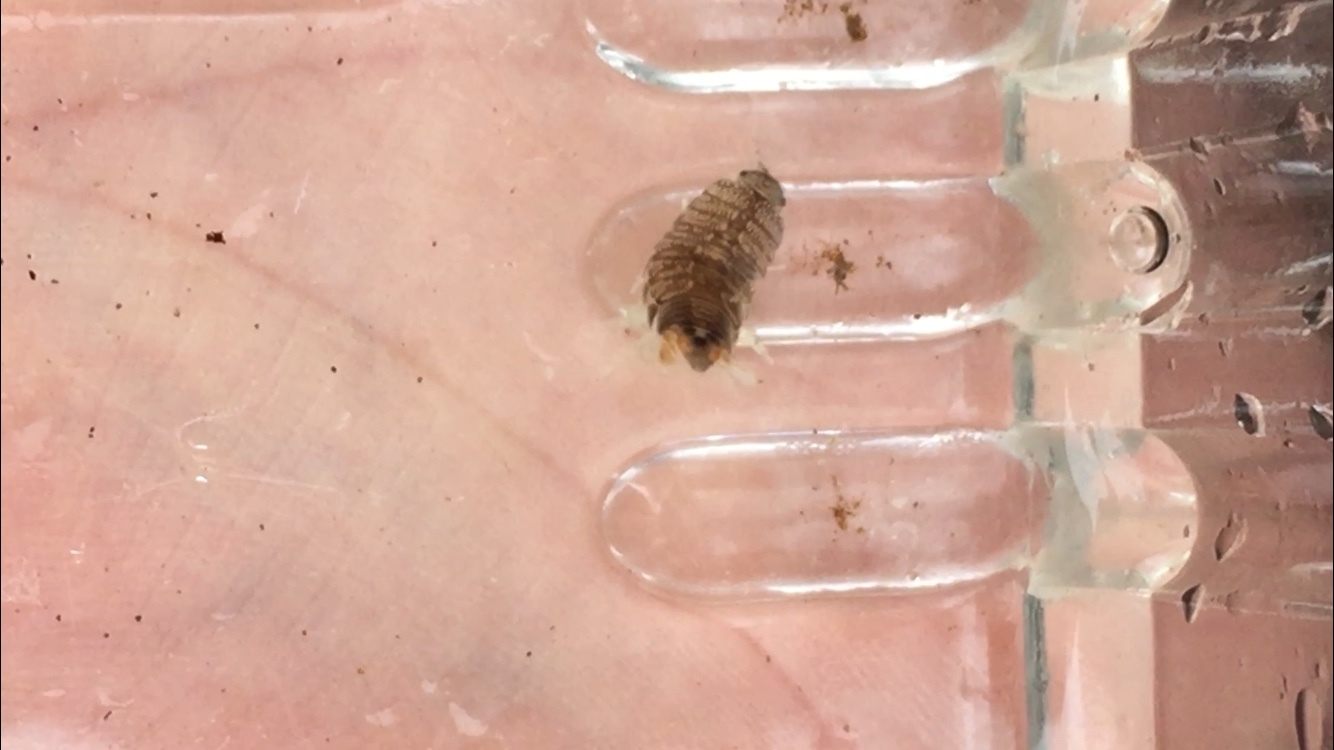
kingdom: Animalia
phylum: Arthropoda
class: Malacostraca
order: Isopoda
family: Cirolanidae
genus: Cirolana
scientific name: Cirolana harfordi
